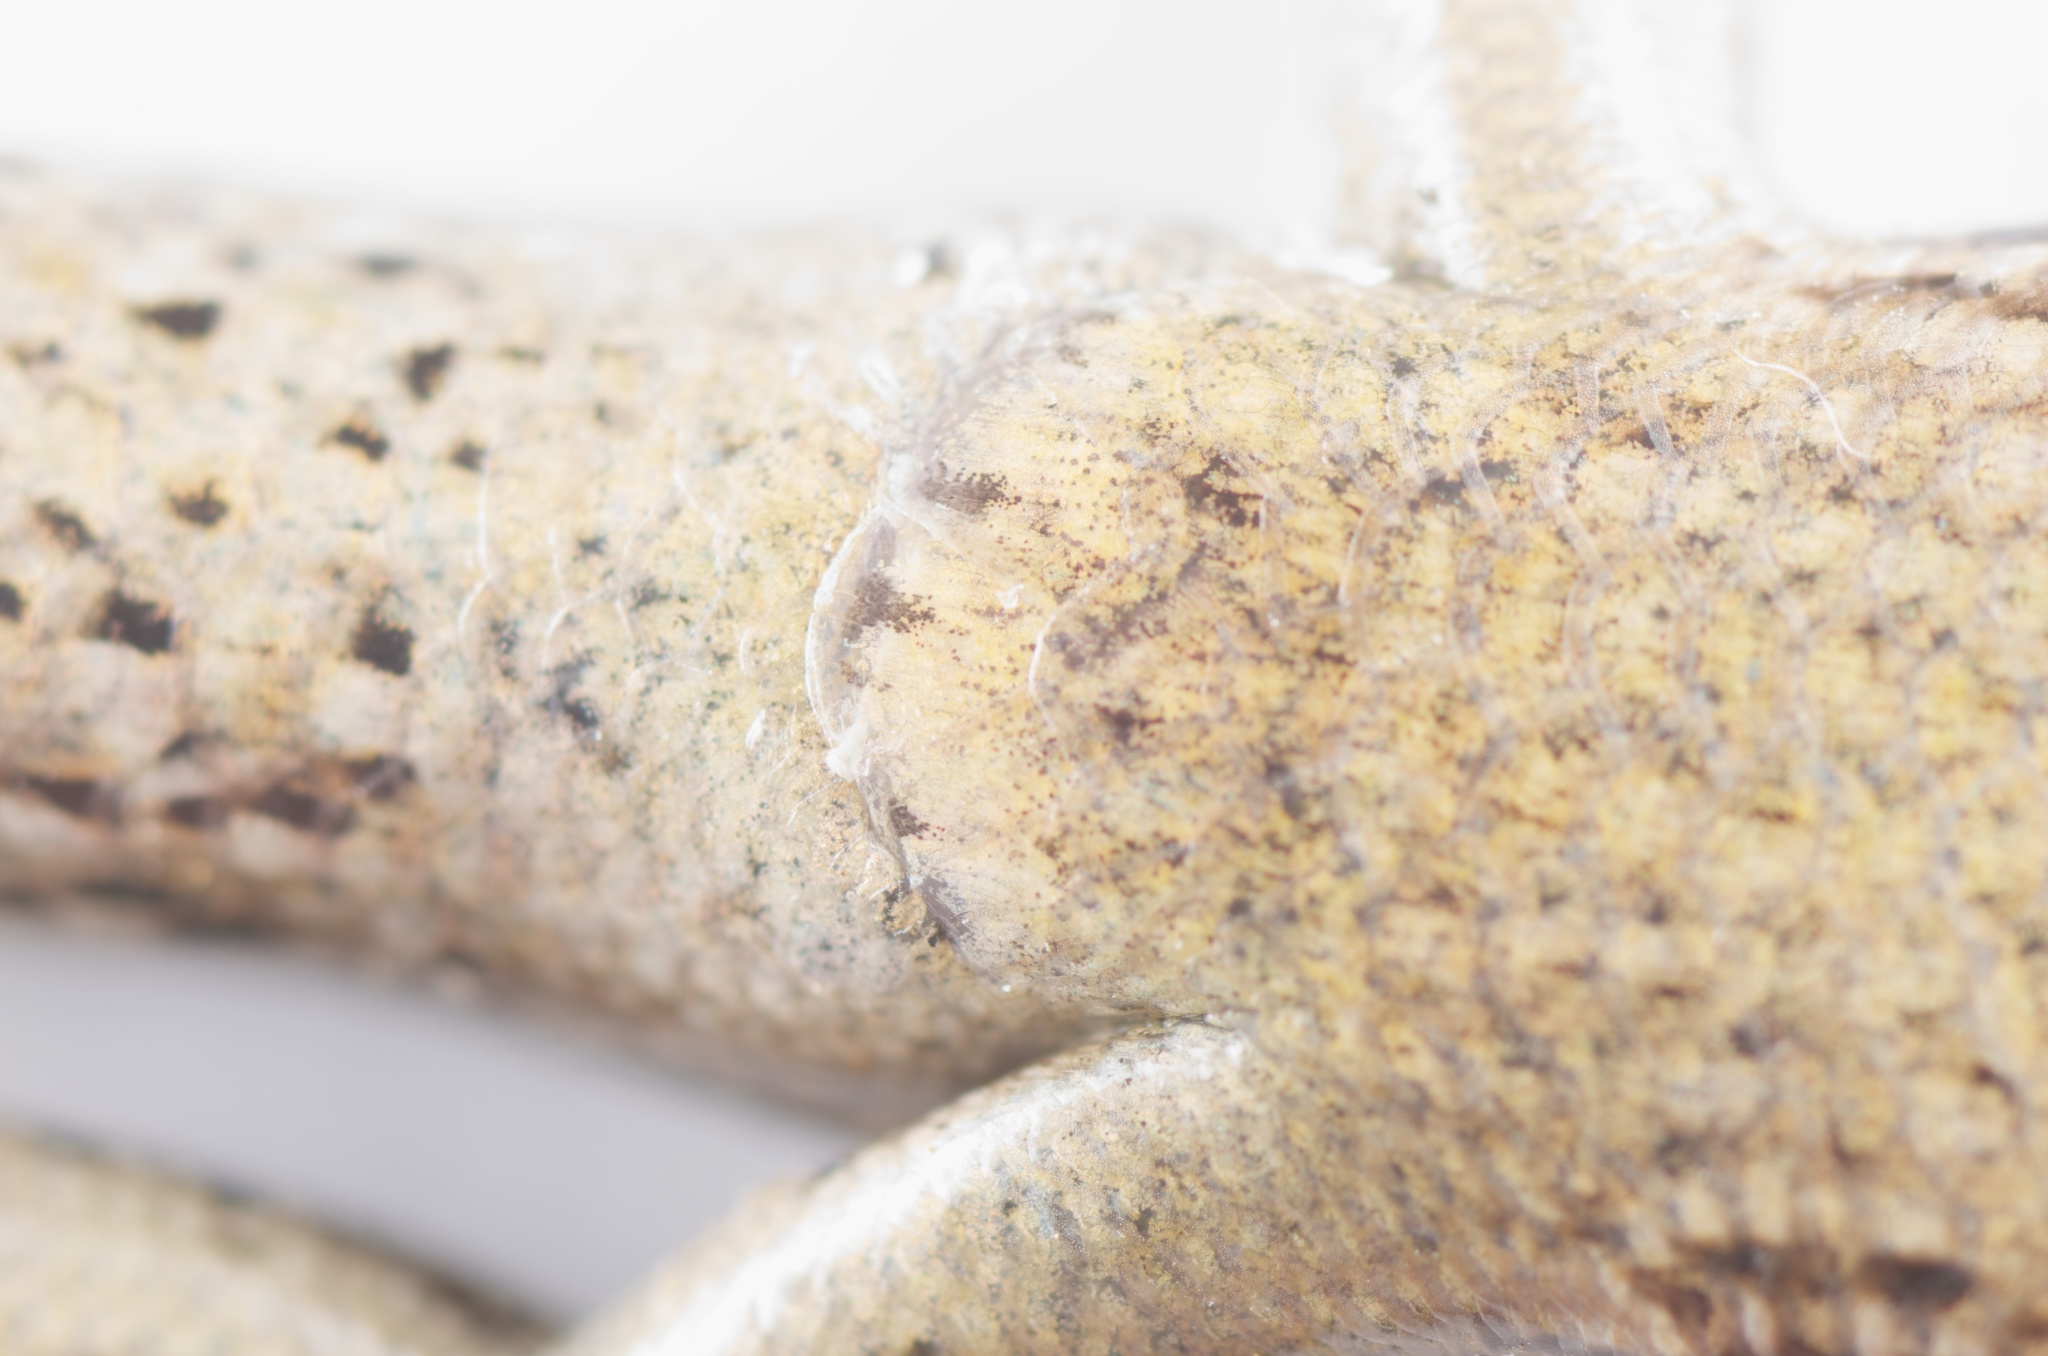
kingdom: Animalia
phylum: Chordata
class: Squamata
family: Scincidae
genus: Oligosoma
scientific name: Oligosoma polychroma
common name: Common new zealand skink
